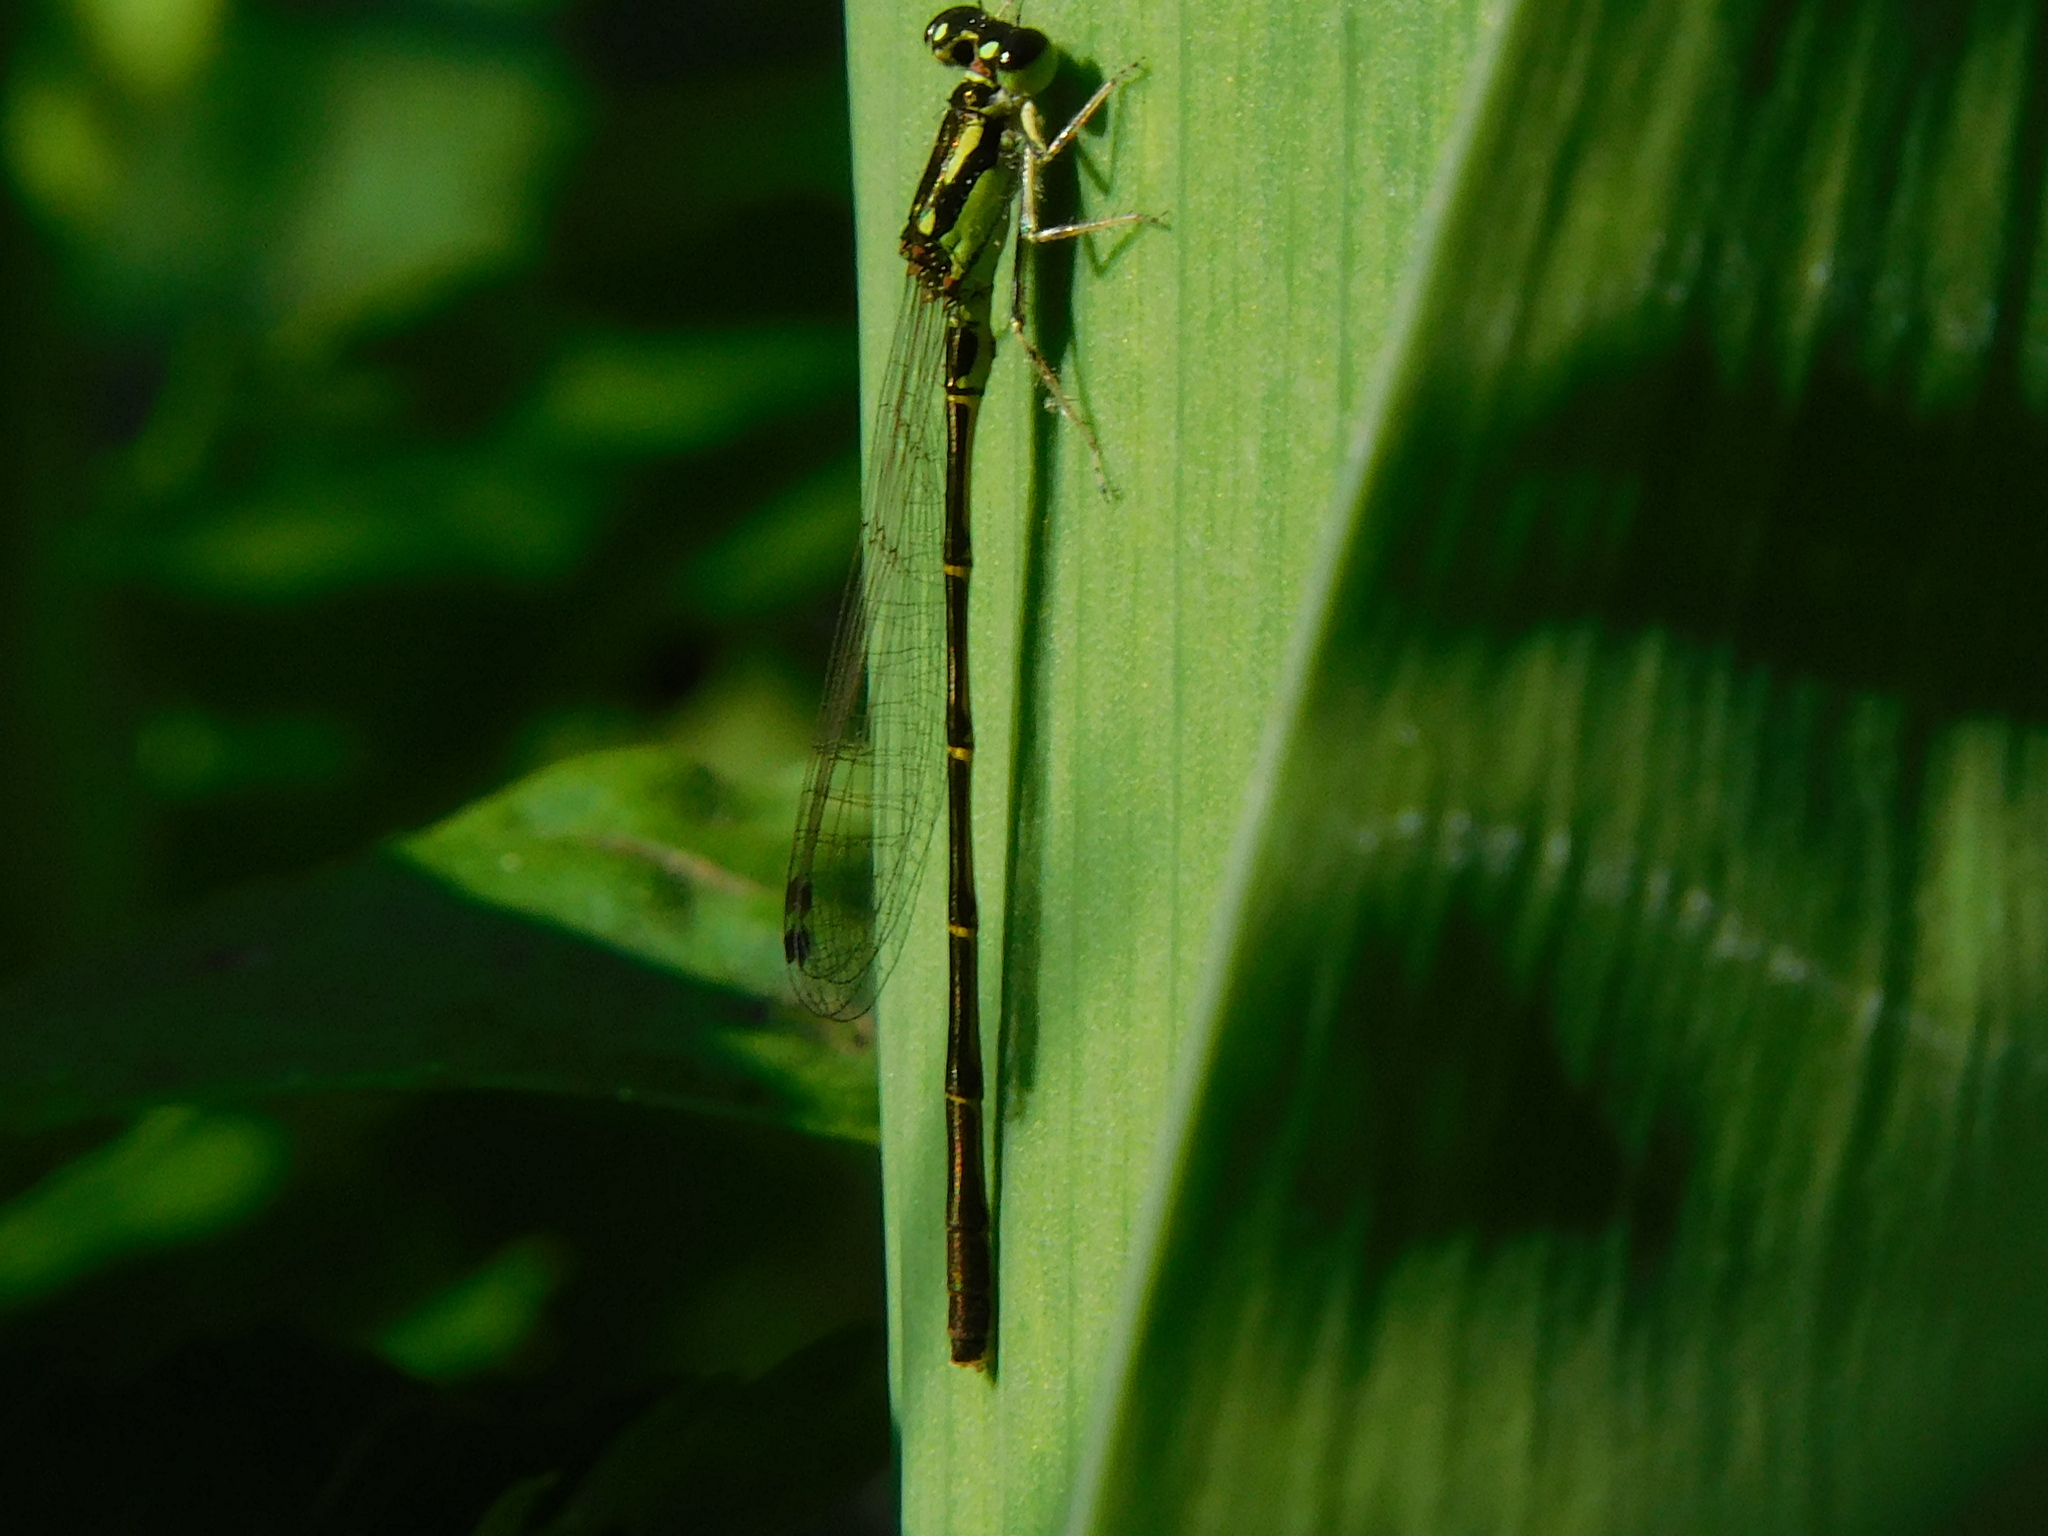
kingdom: Animalia
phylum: Arthropoda
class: Insecta
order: Odonata
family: Coenagrionidae
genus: Ischnura
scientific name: Ischnura posita
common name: Fragile forktail
